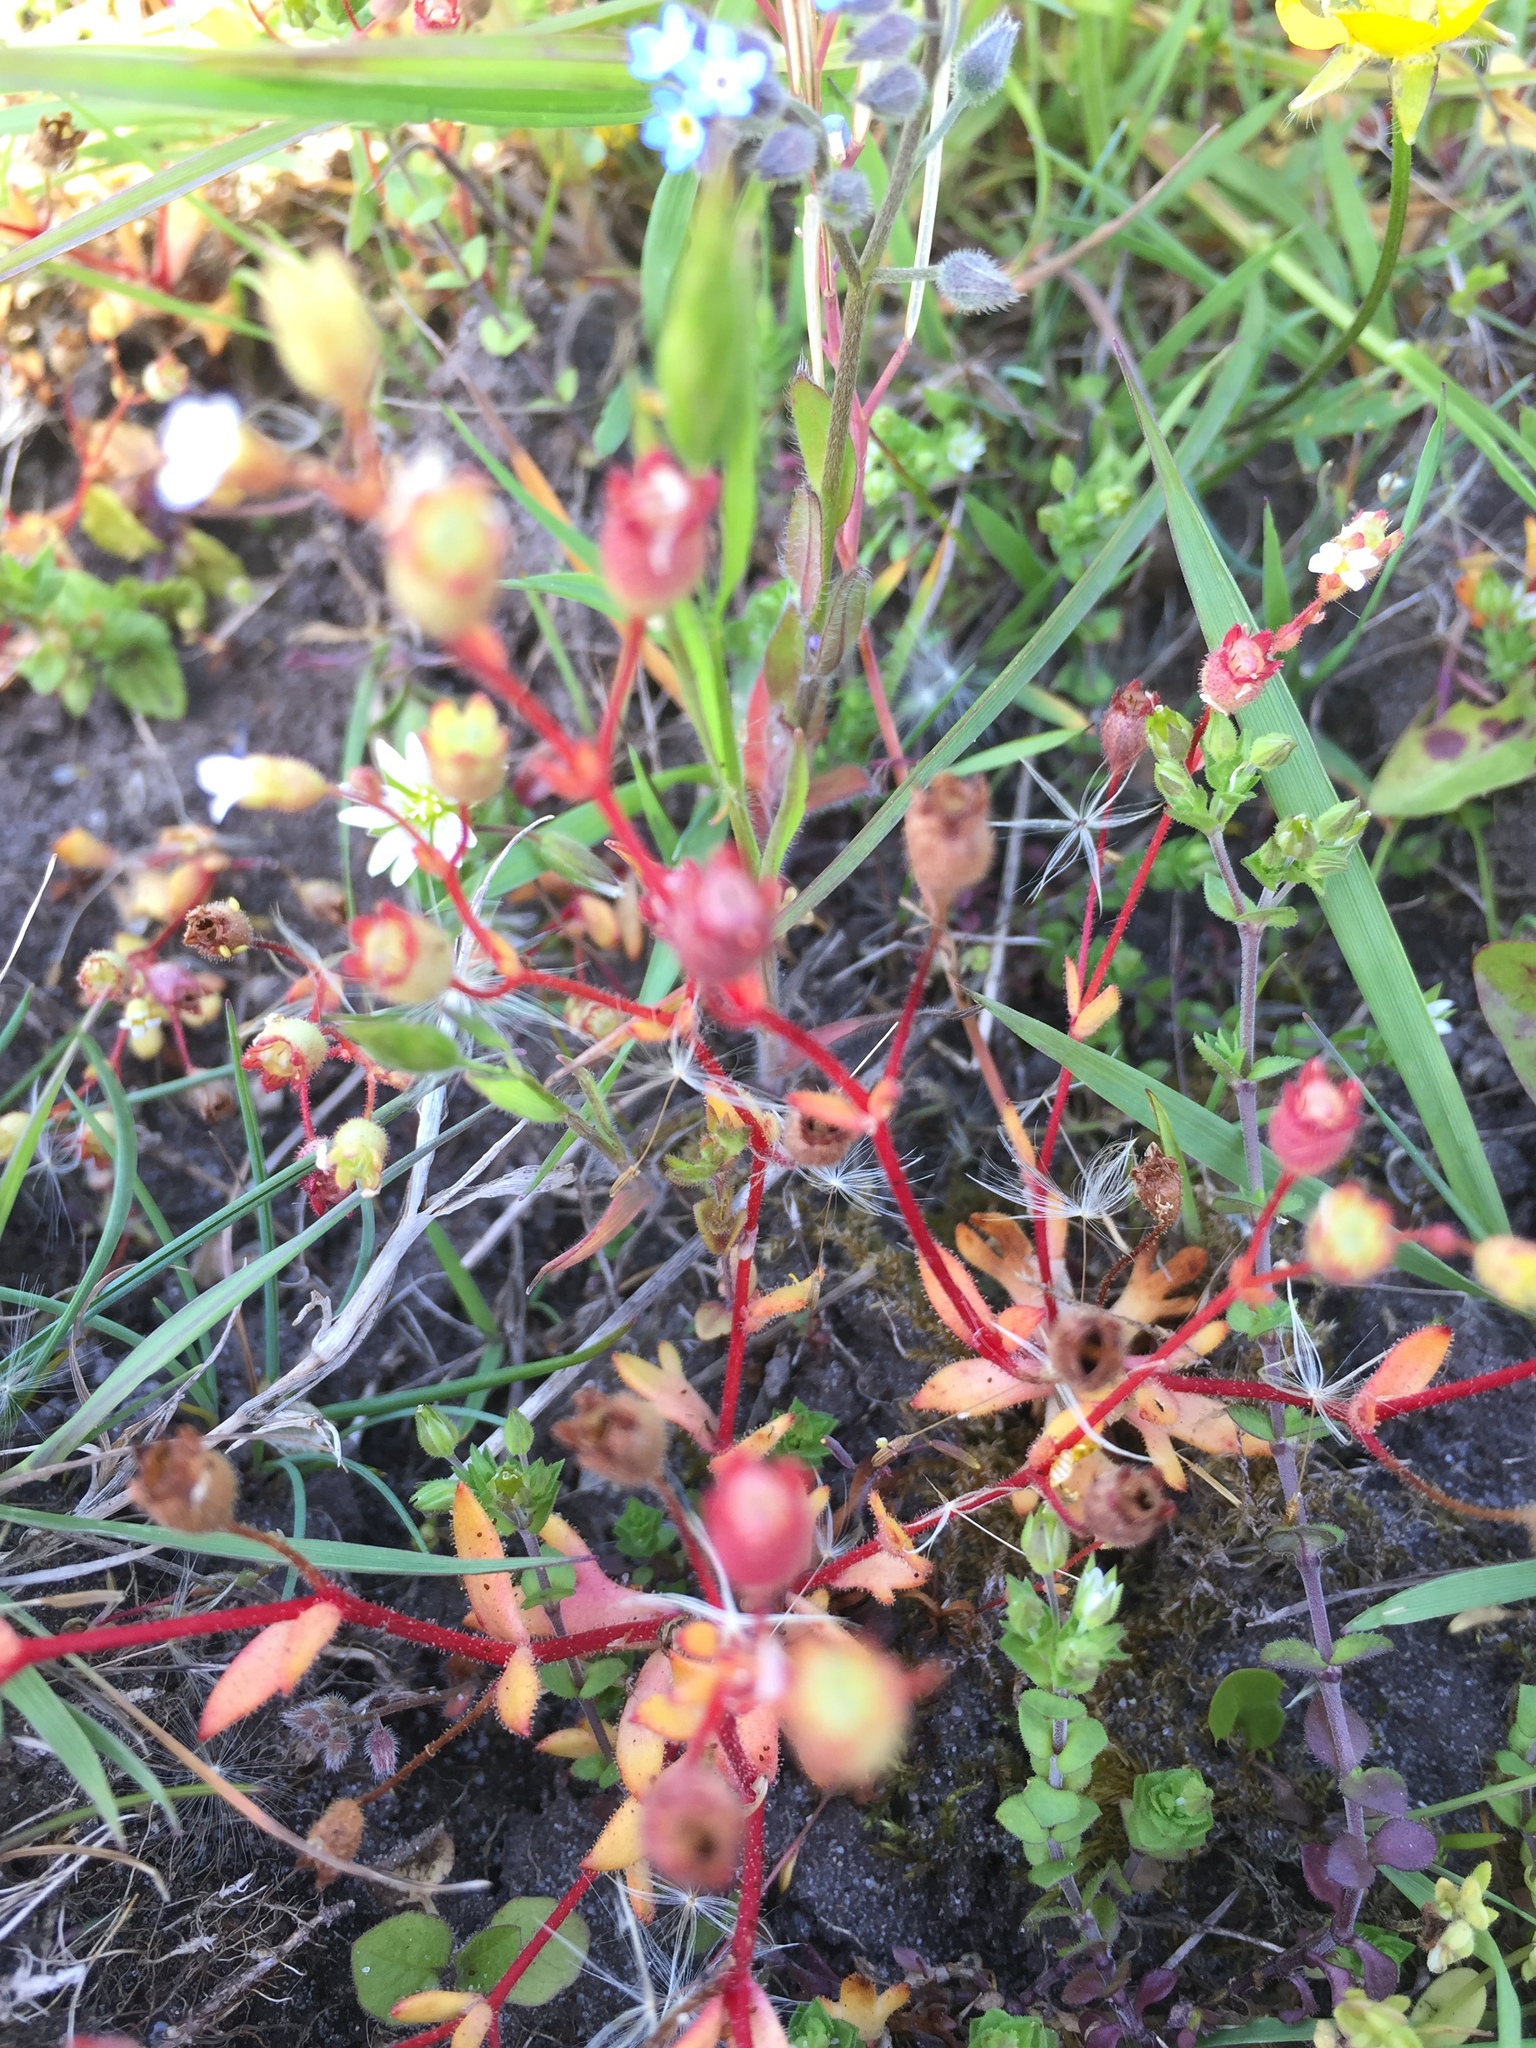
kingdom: Plantae
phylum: Tracheophyta
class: Magnoliopsida
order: Saxifragales
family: Saxifragaceae
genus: Saxifraga
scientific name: Saxifraga tridactylites
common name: Rue-leaved saxifrage
